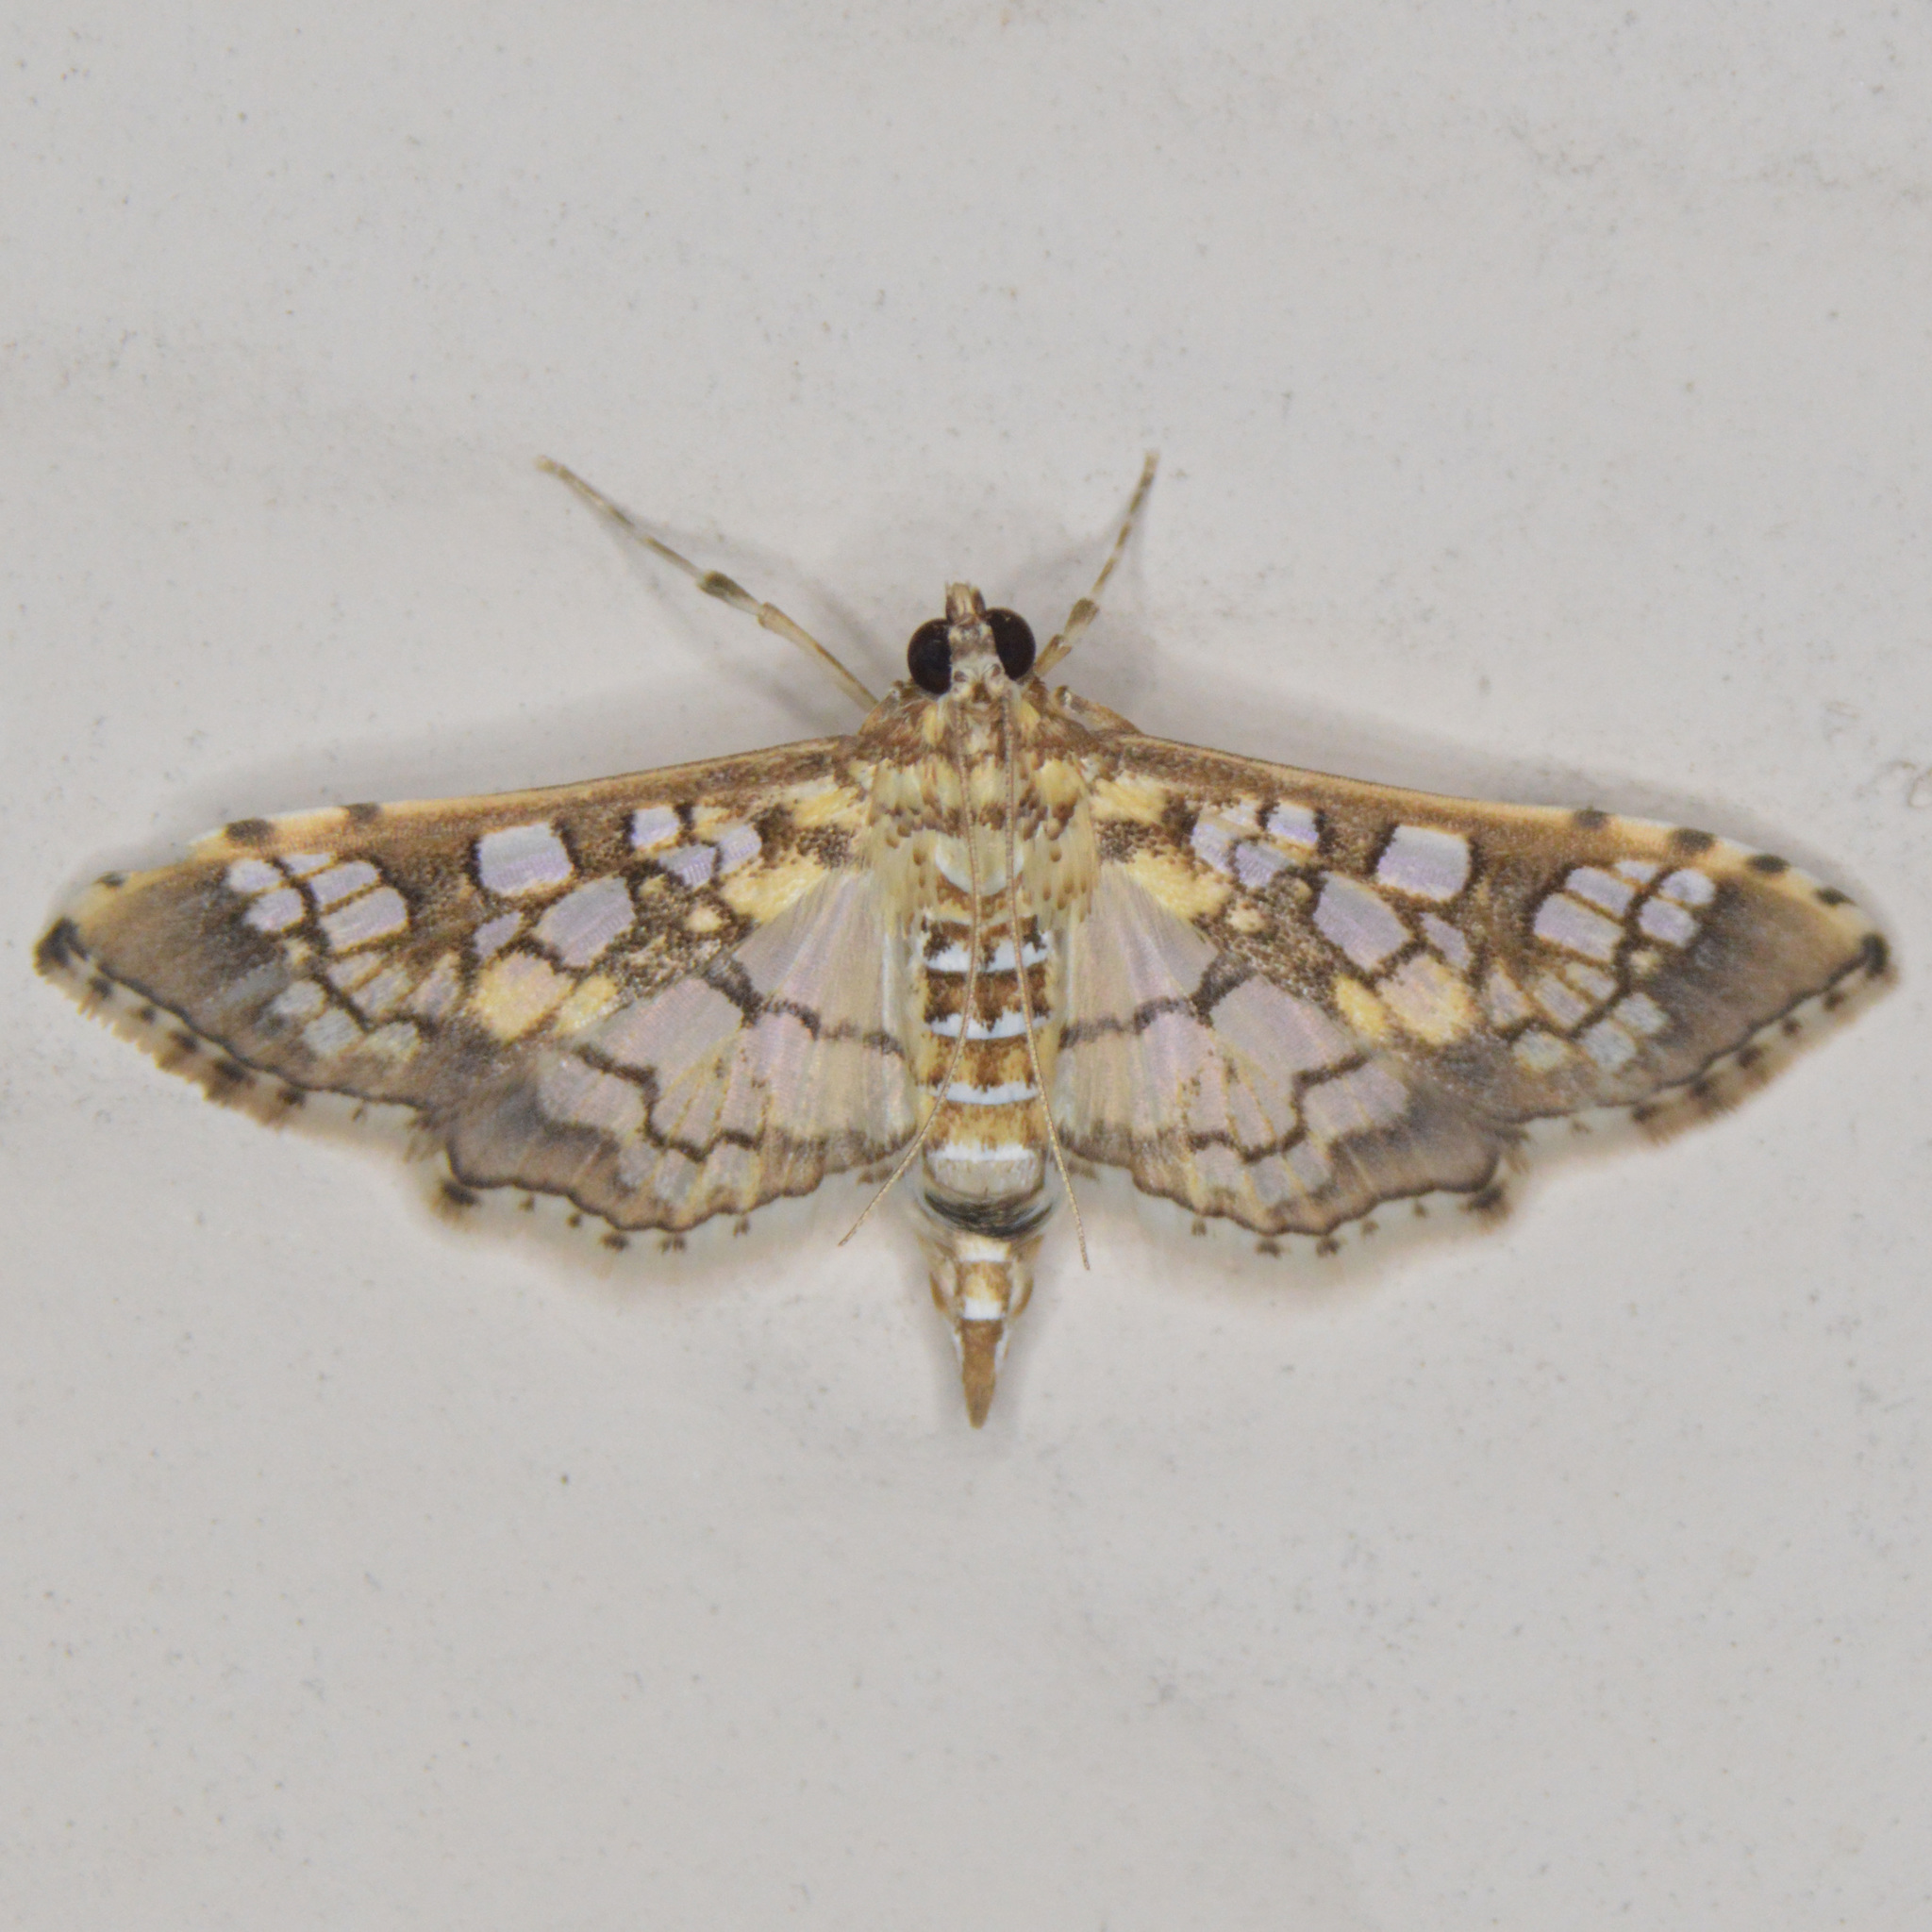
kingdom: Animalia
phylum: Arthropoda
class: Insecta
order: Lepidoptera
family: Crambidae
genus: Samea
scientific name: Samea ecclesialis
